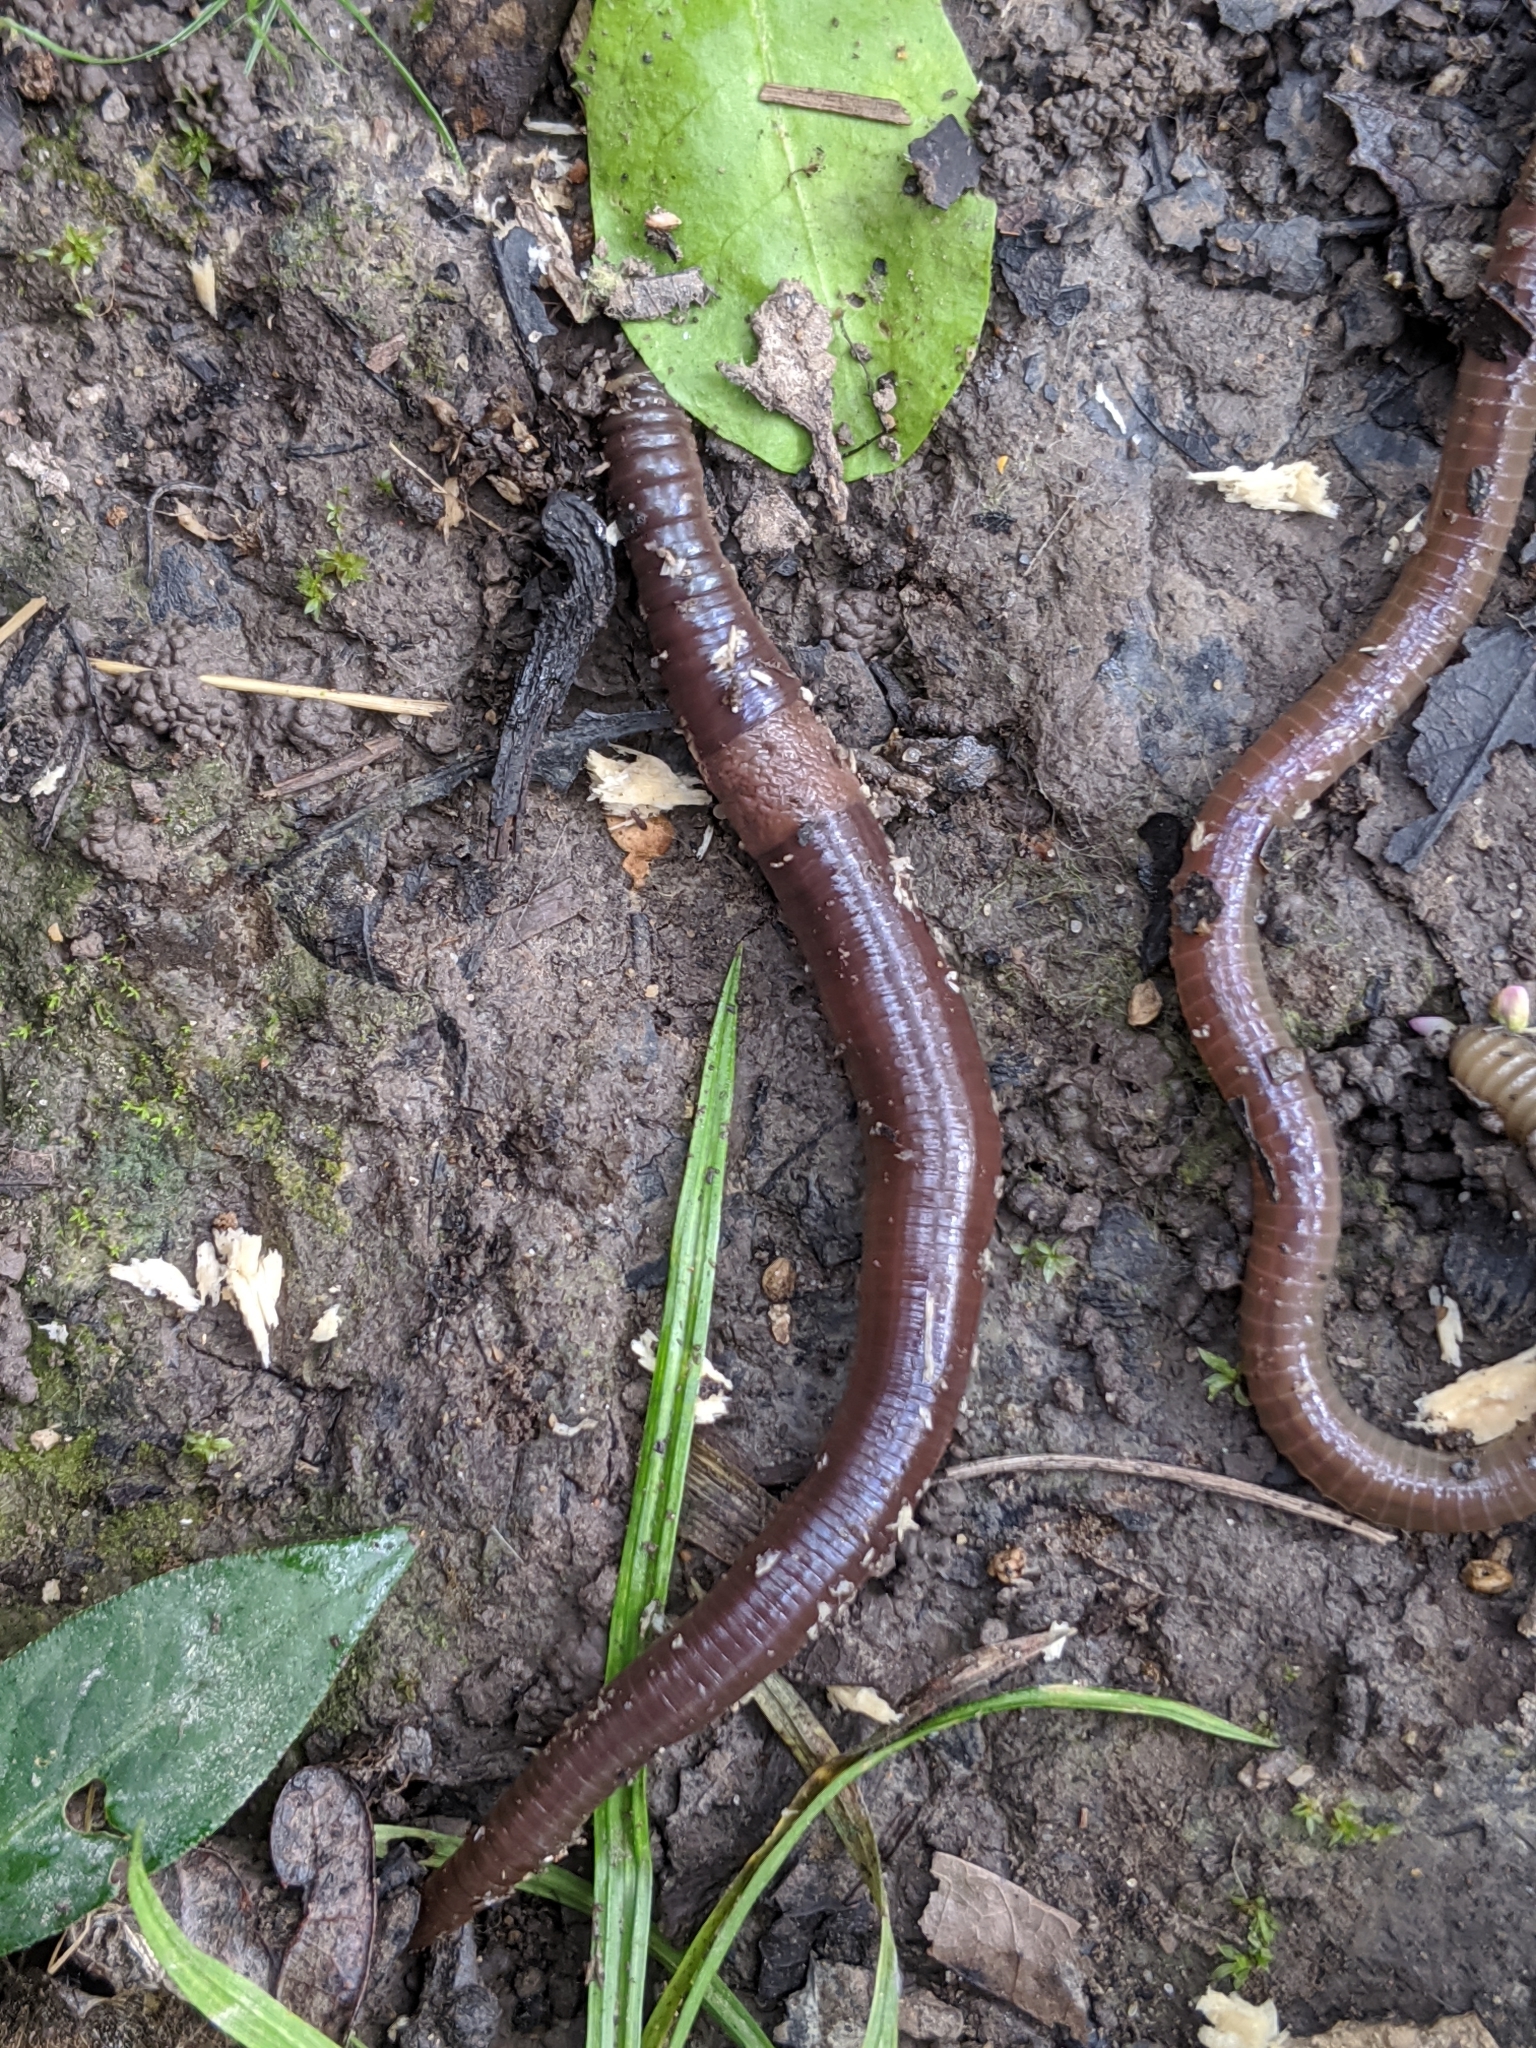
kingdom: Animalia
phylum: Annelida
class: Clitellata
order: Crassiclitellata
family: Megascolecidae
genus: Amynthas
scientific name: Amynthas agrestis
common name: Jumping snake worm
